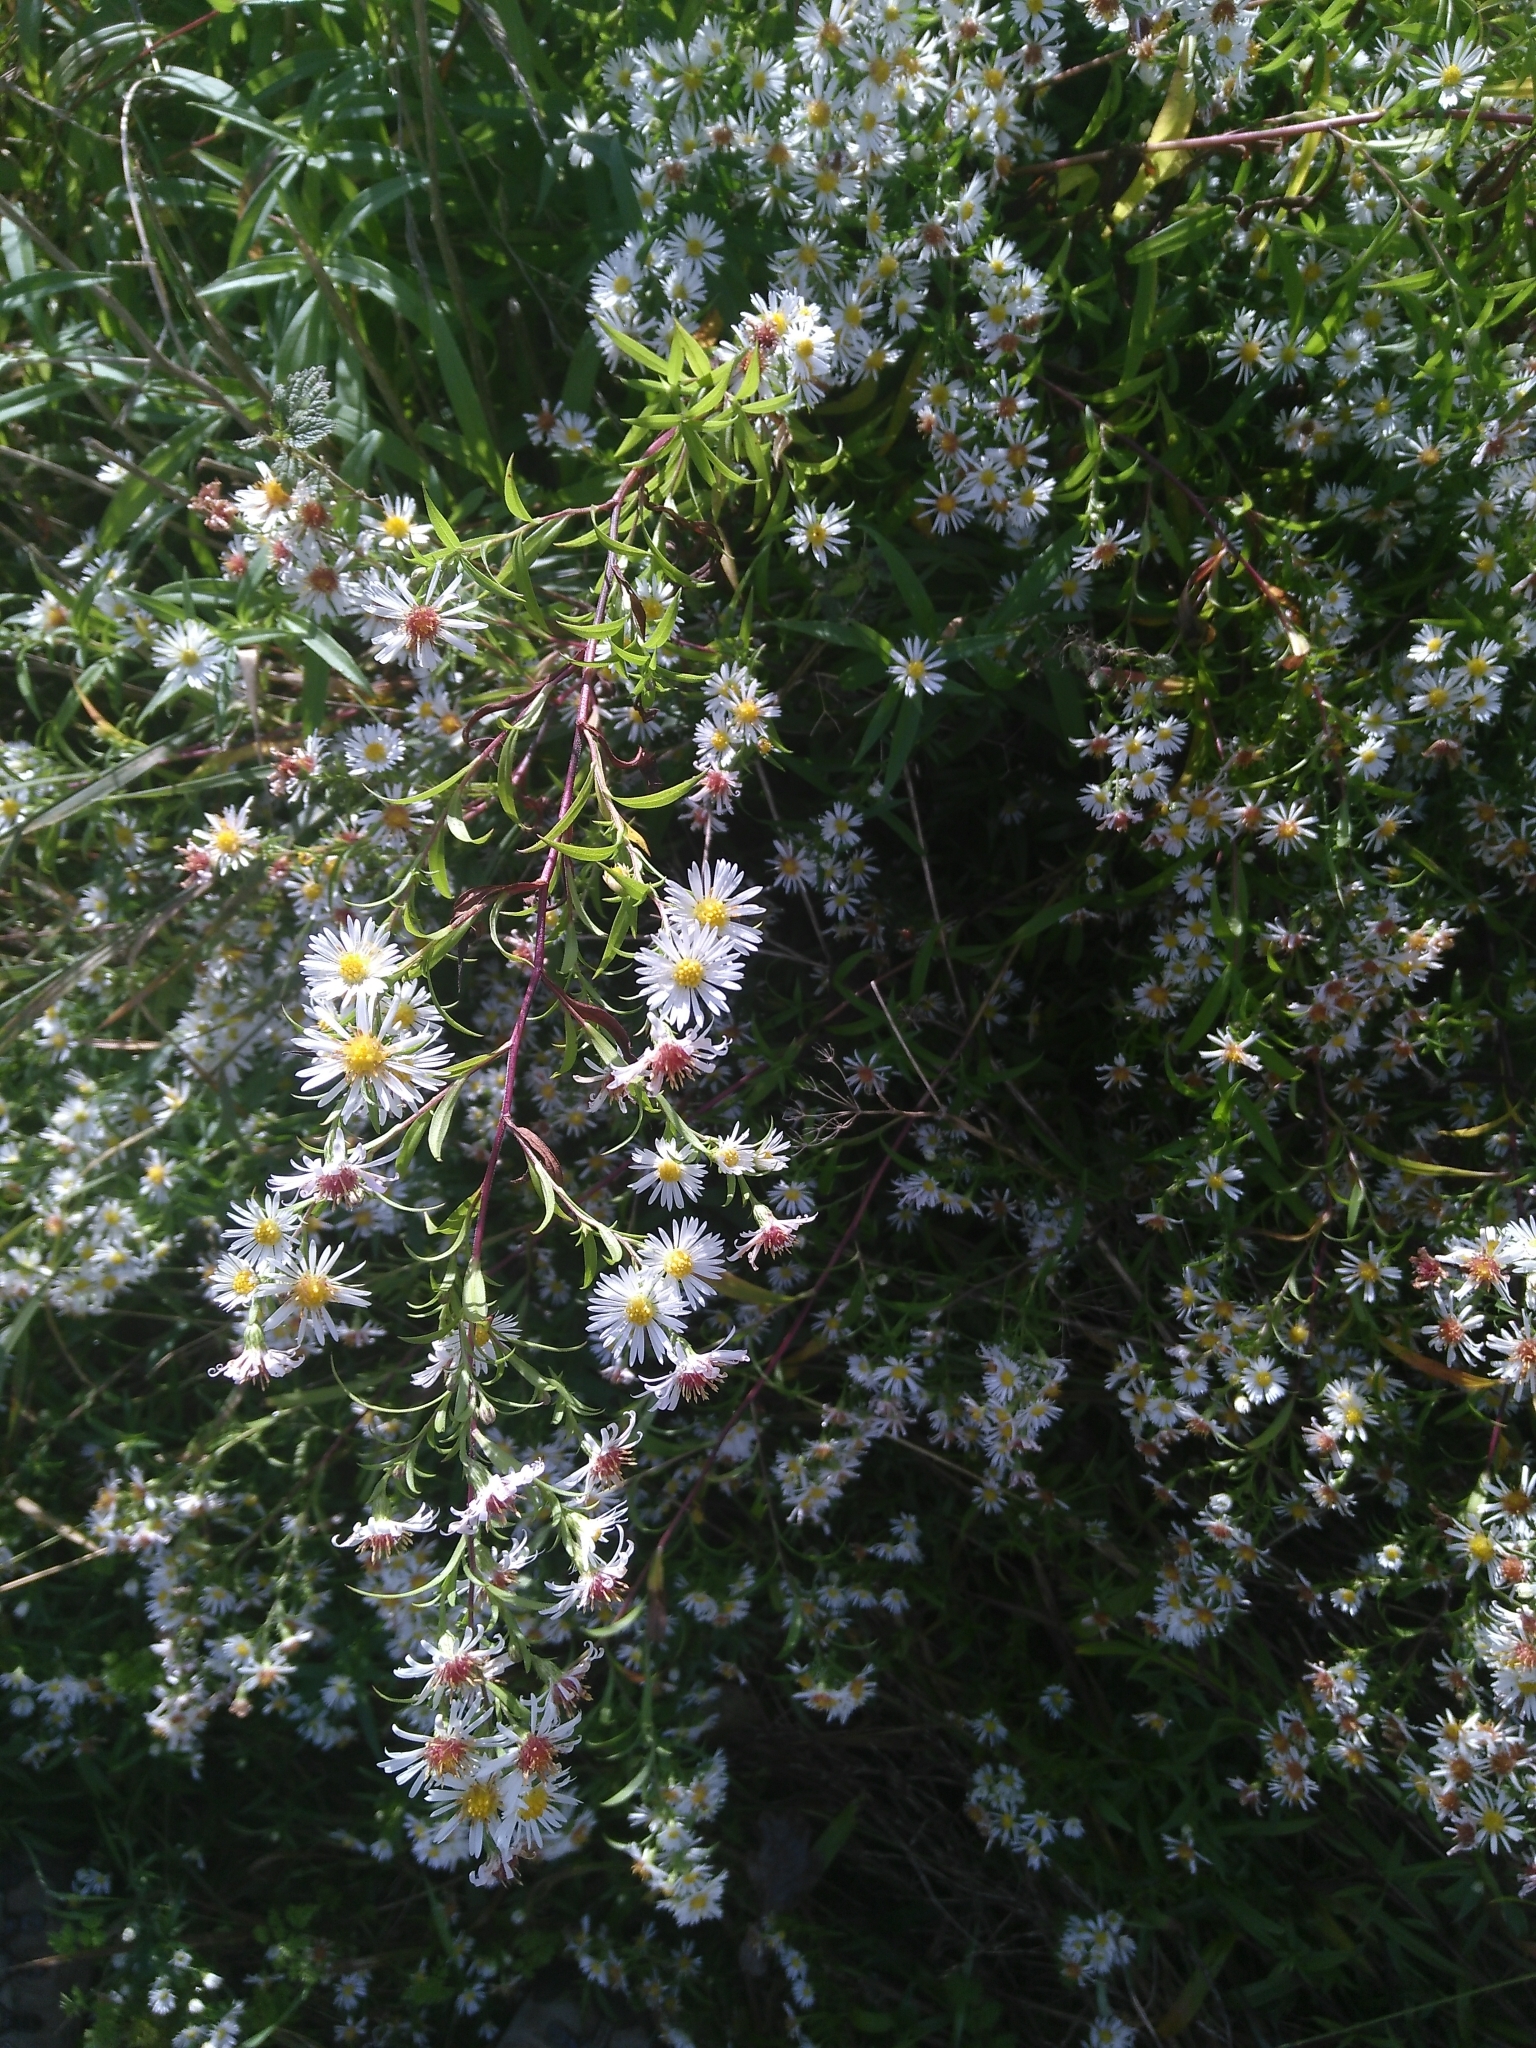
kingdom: Plantae
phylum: Tracheophyta
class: Magnoliopsida
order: Asterales
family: Asteraceae
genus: Symphyotrichum
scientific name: Symphyotrichum lanceolatum
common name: Panicled aster
